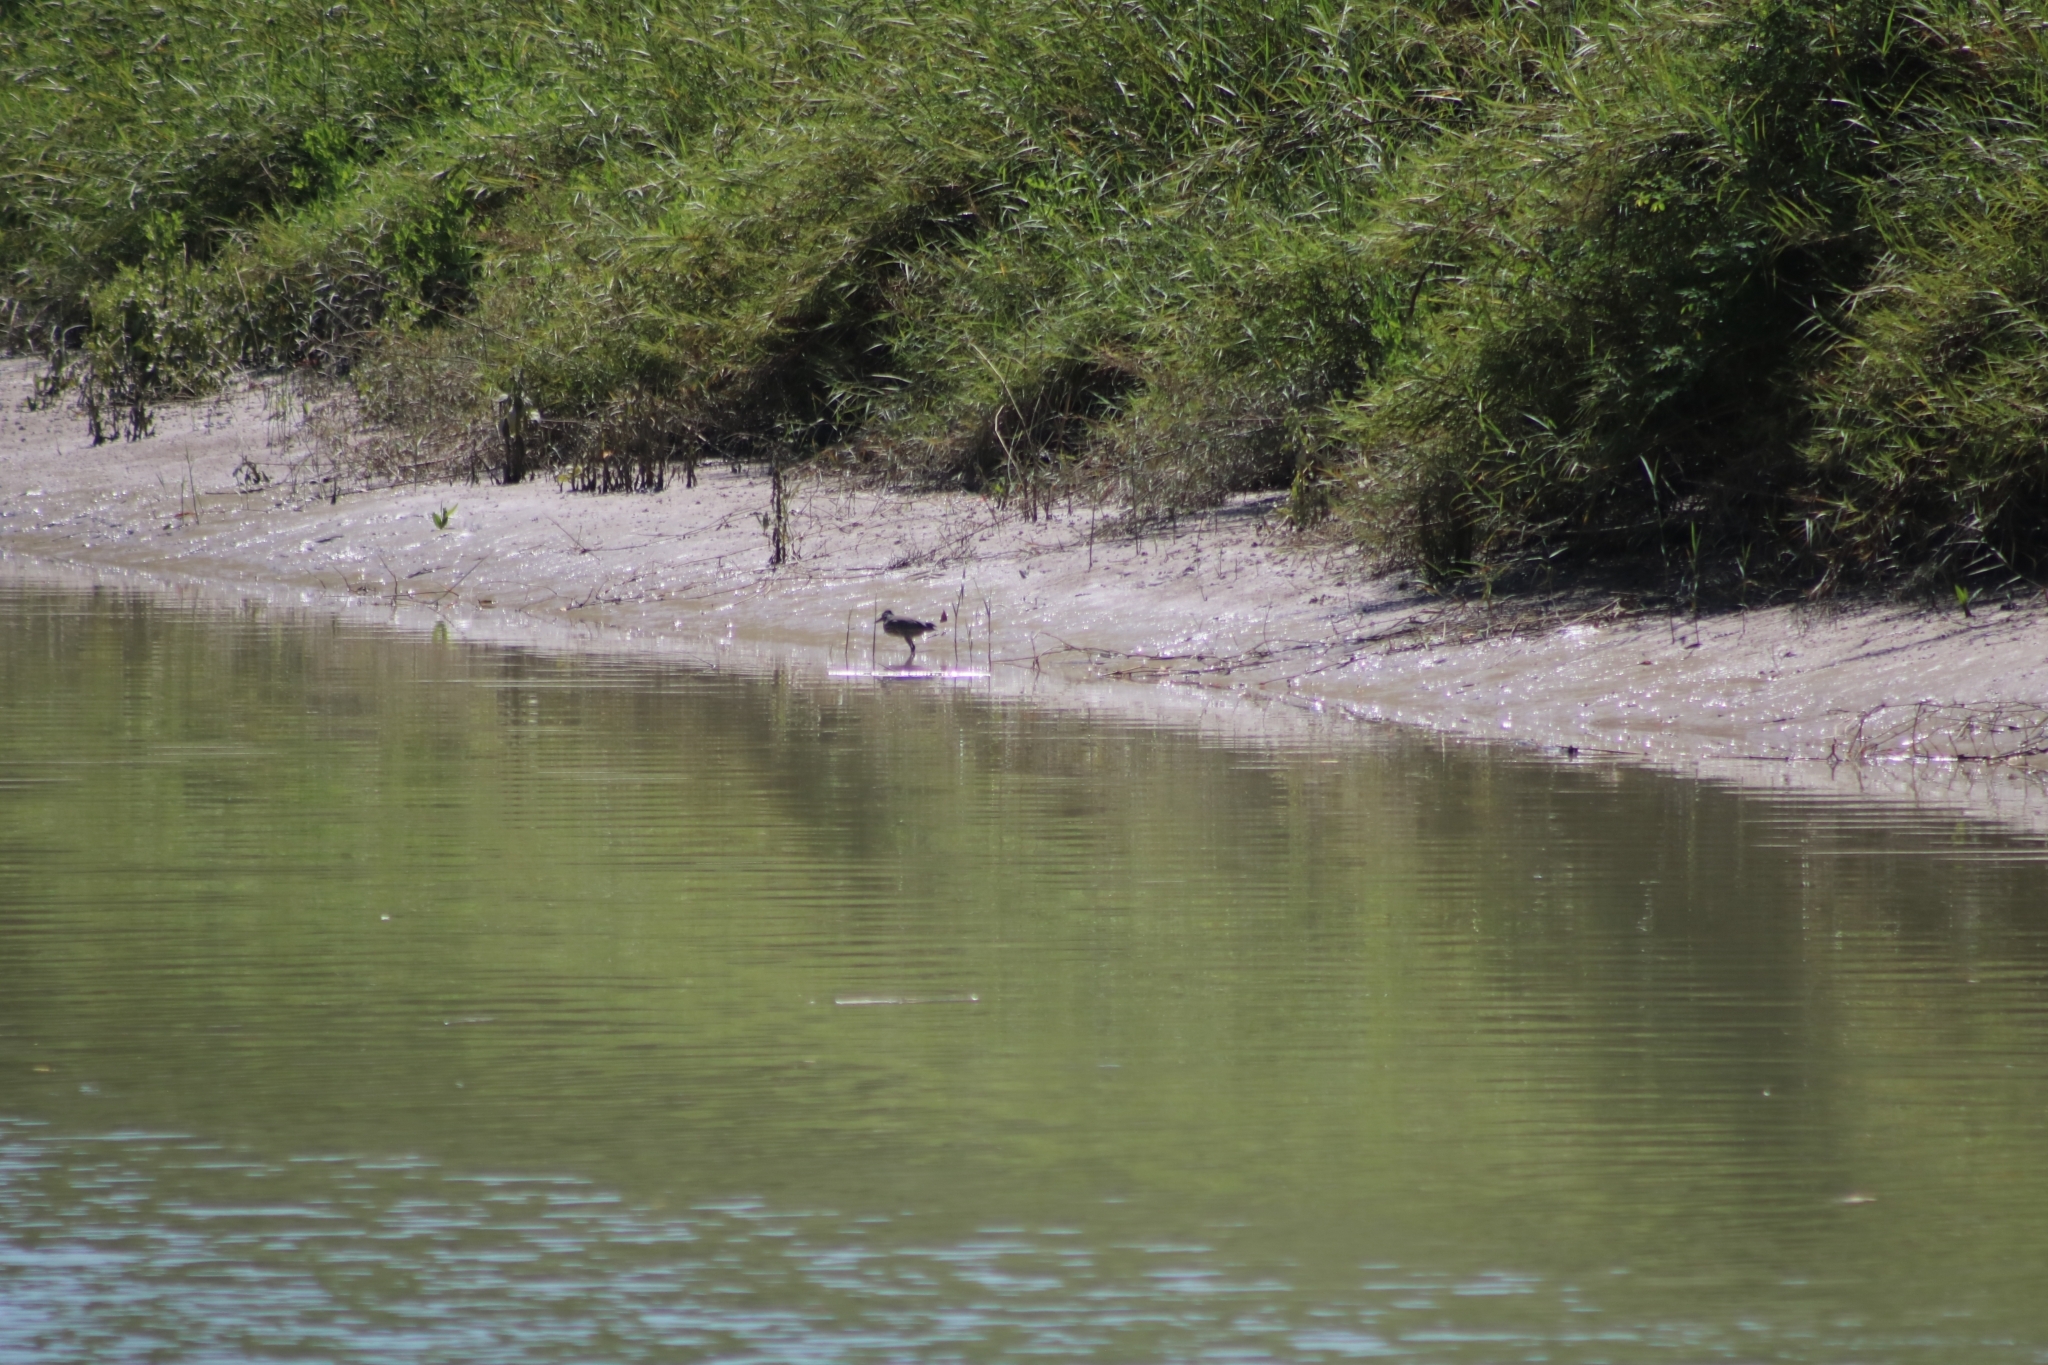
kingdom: Animalia
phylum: Chordata
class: Aves
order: Pelecaniformes
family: Ardeidae
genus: Butorides
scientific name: Butorides striata
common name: Striated heron
